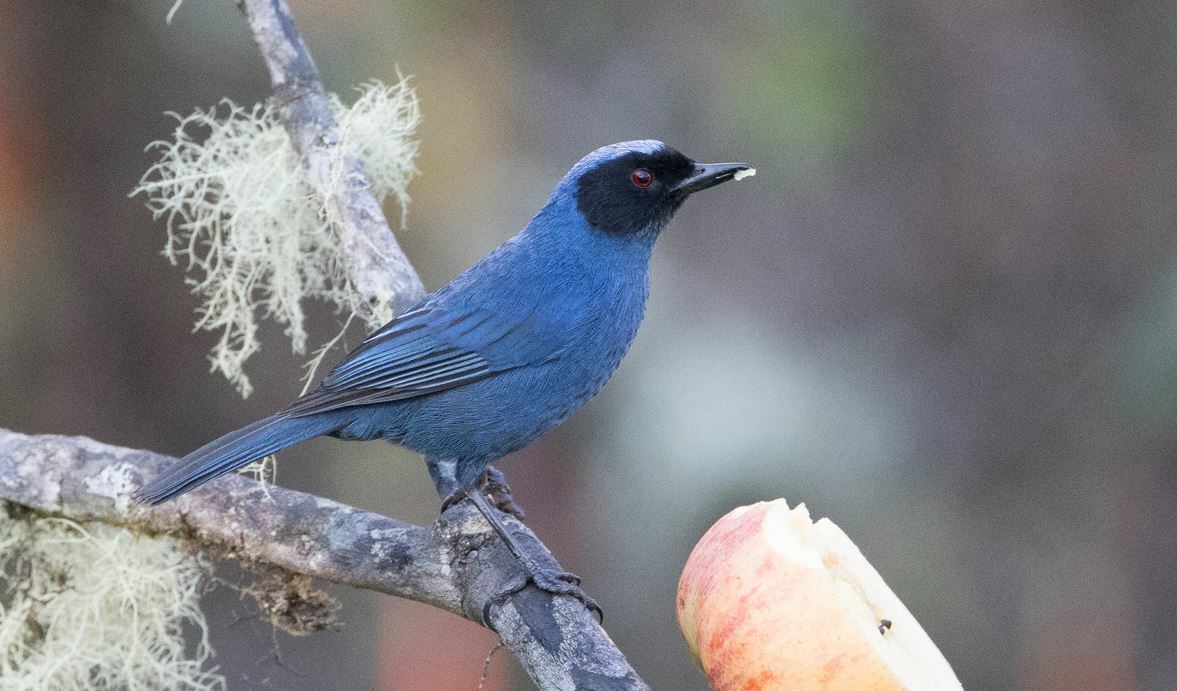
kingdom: Animalia
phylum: Chordata
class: Aves
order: Passeriformes
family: Thraupidae
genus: Diglossa
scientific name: Diglossa cyanea
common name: Masked flowerpiercer
